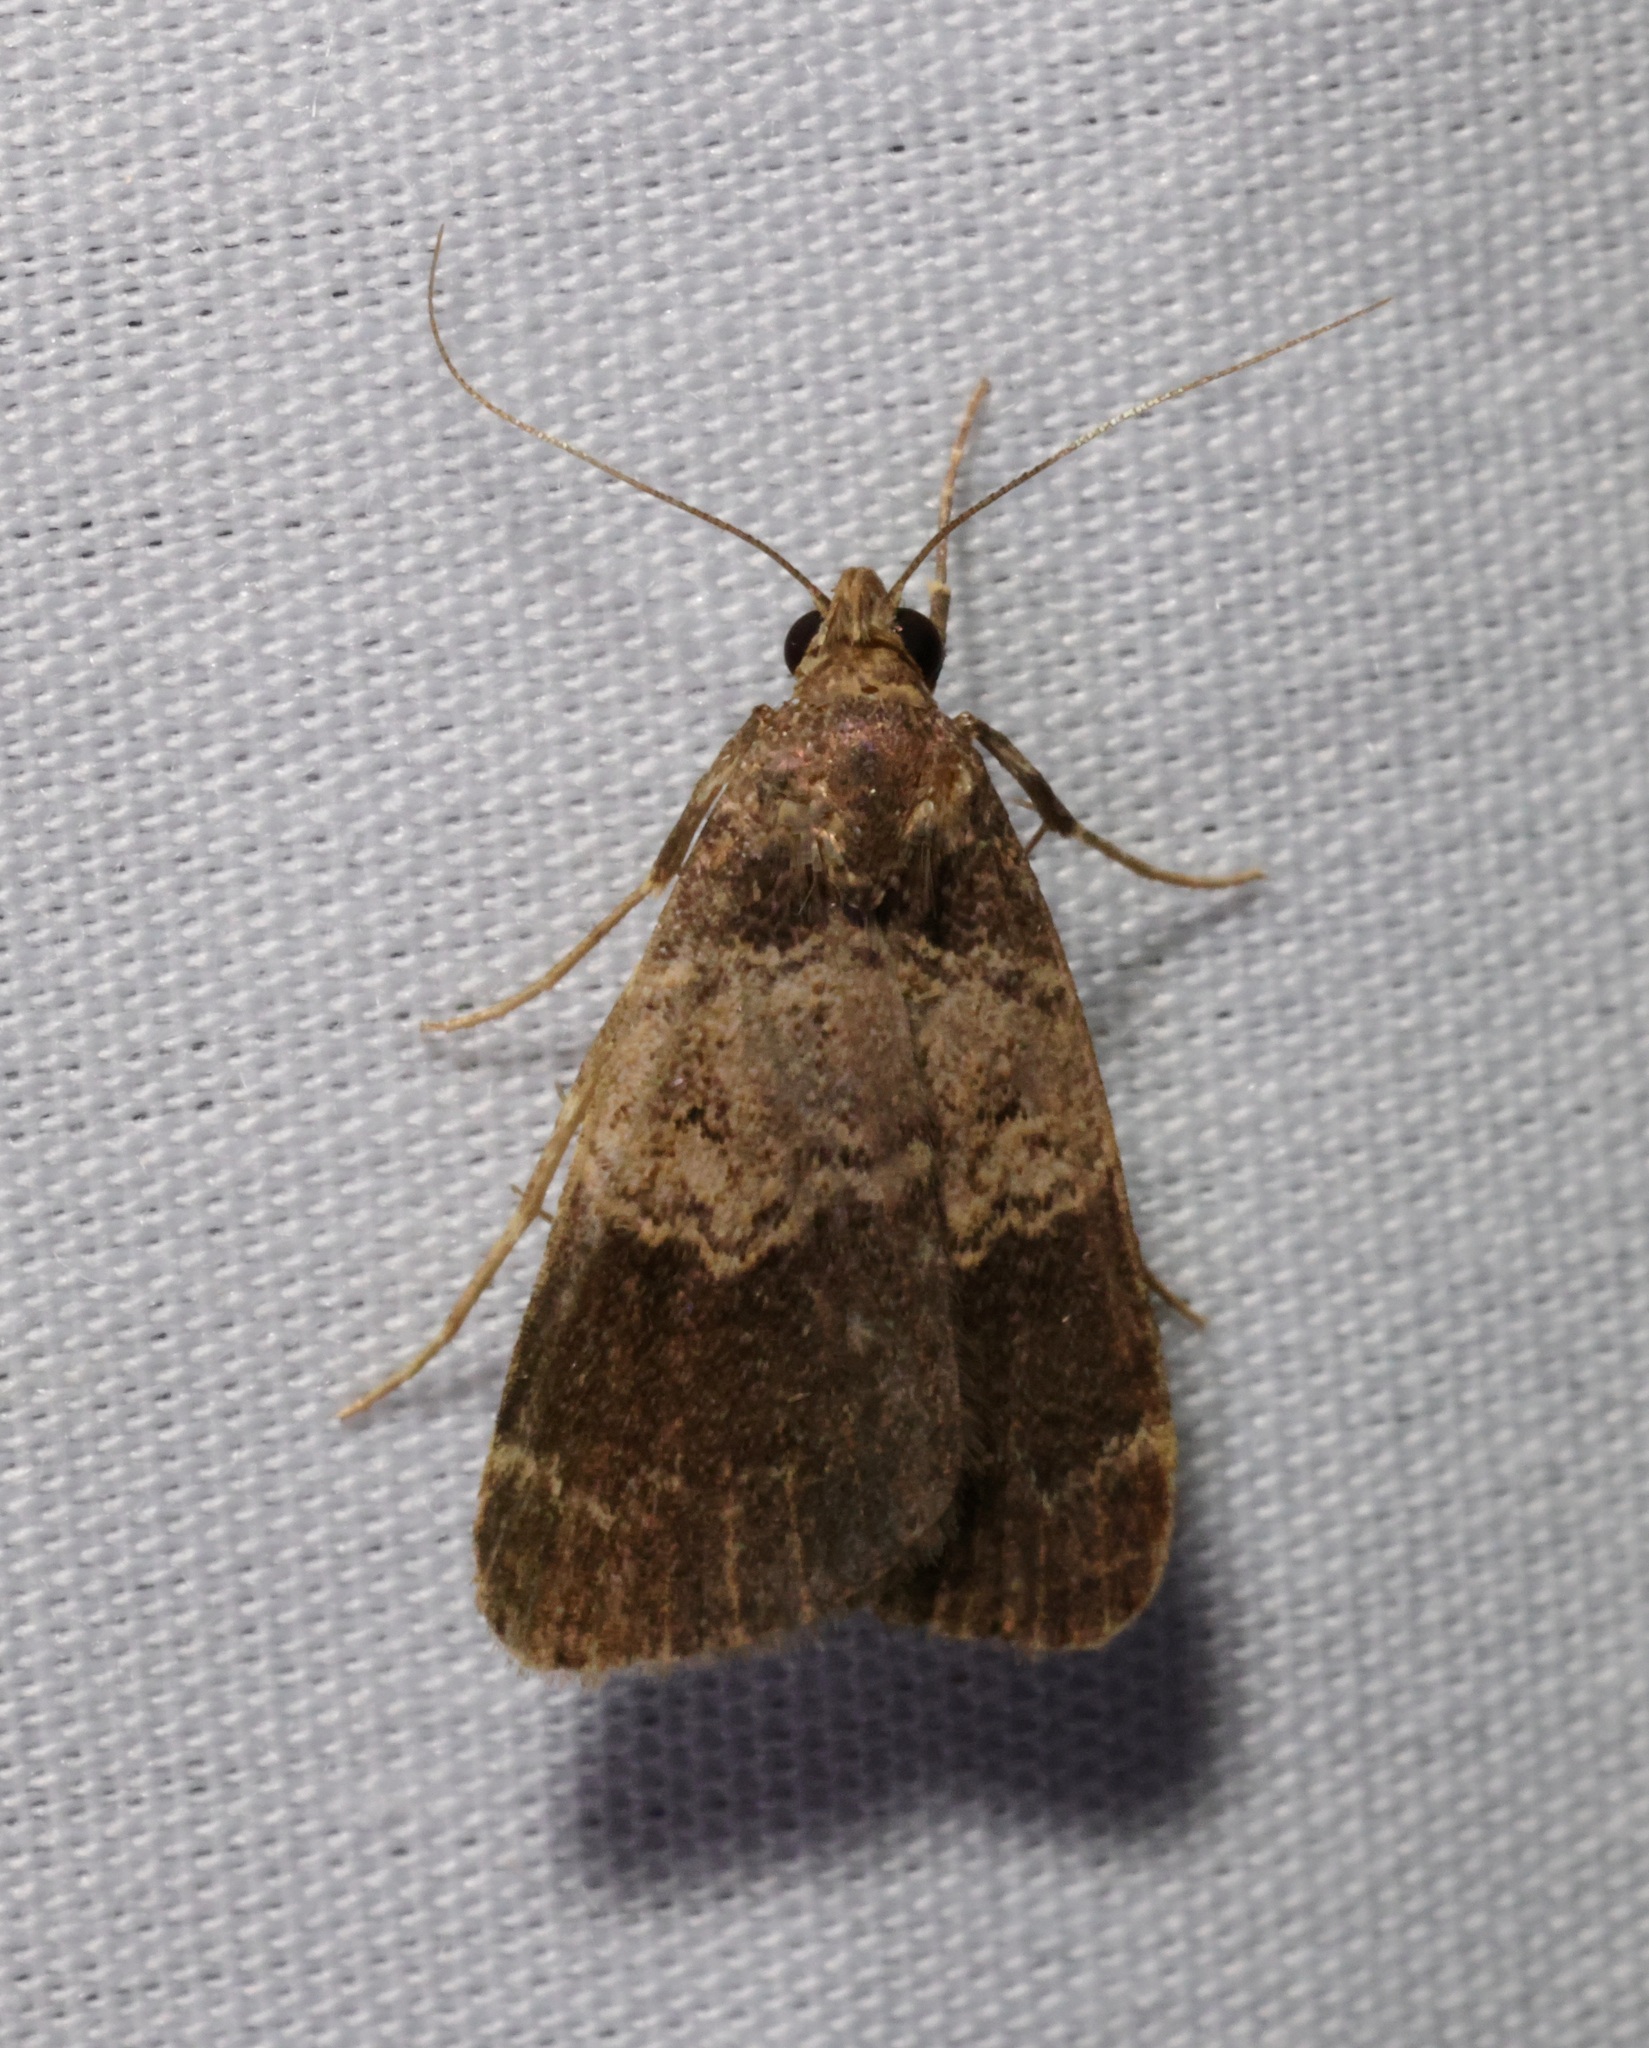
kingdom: Animalia
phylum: Arthropoda
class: Insecta
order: Lepidoptera
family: Erebidae
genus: Hydrillodes
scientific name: Hydrillodes abavalis
